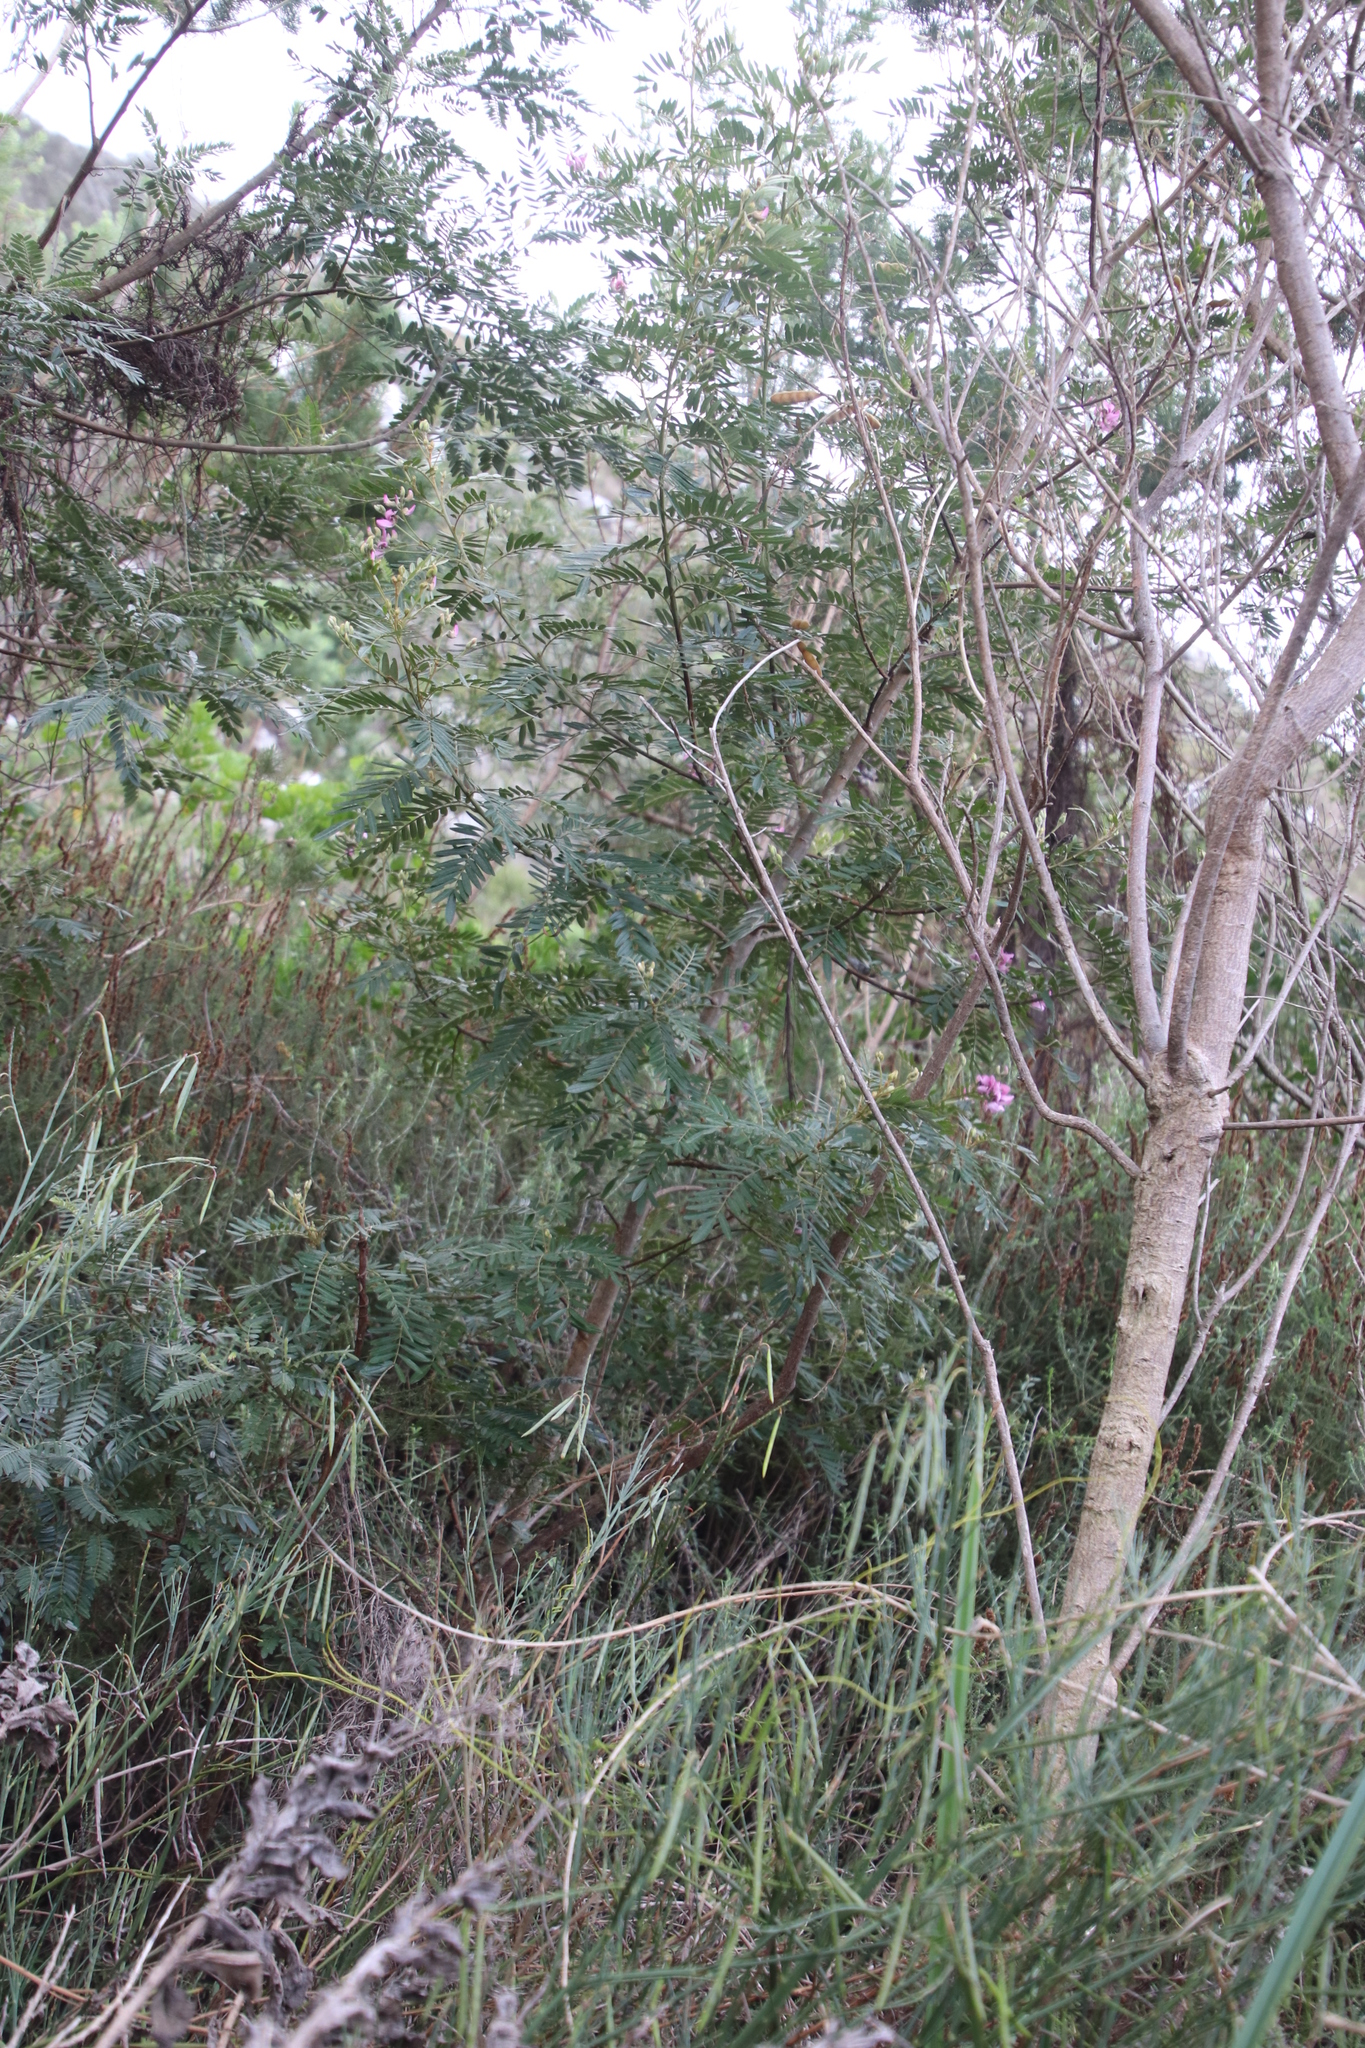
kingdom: Plantae
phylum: Tracheophyta
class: Magnoliopsida
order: Fabales
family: Fabaceae
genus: Virgilia
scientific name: Virgilia oroboides
